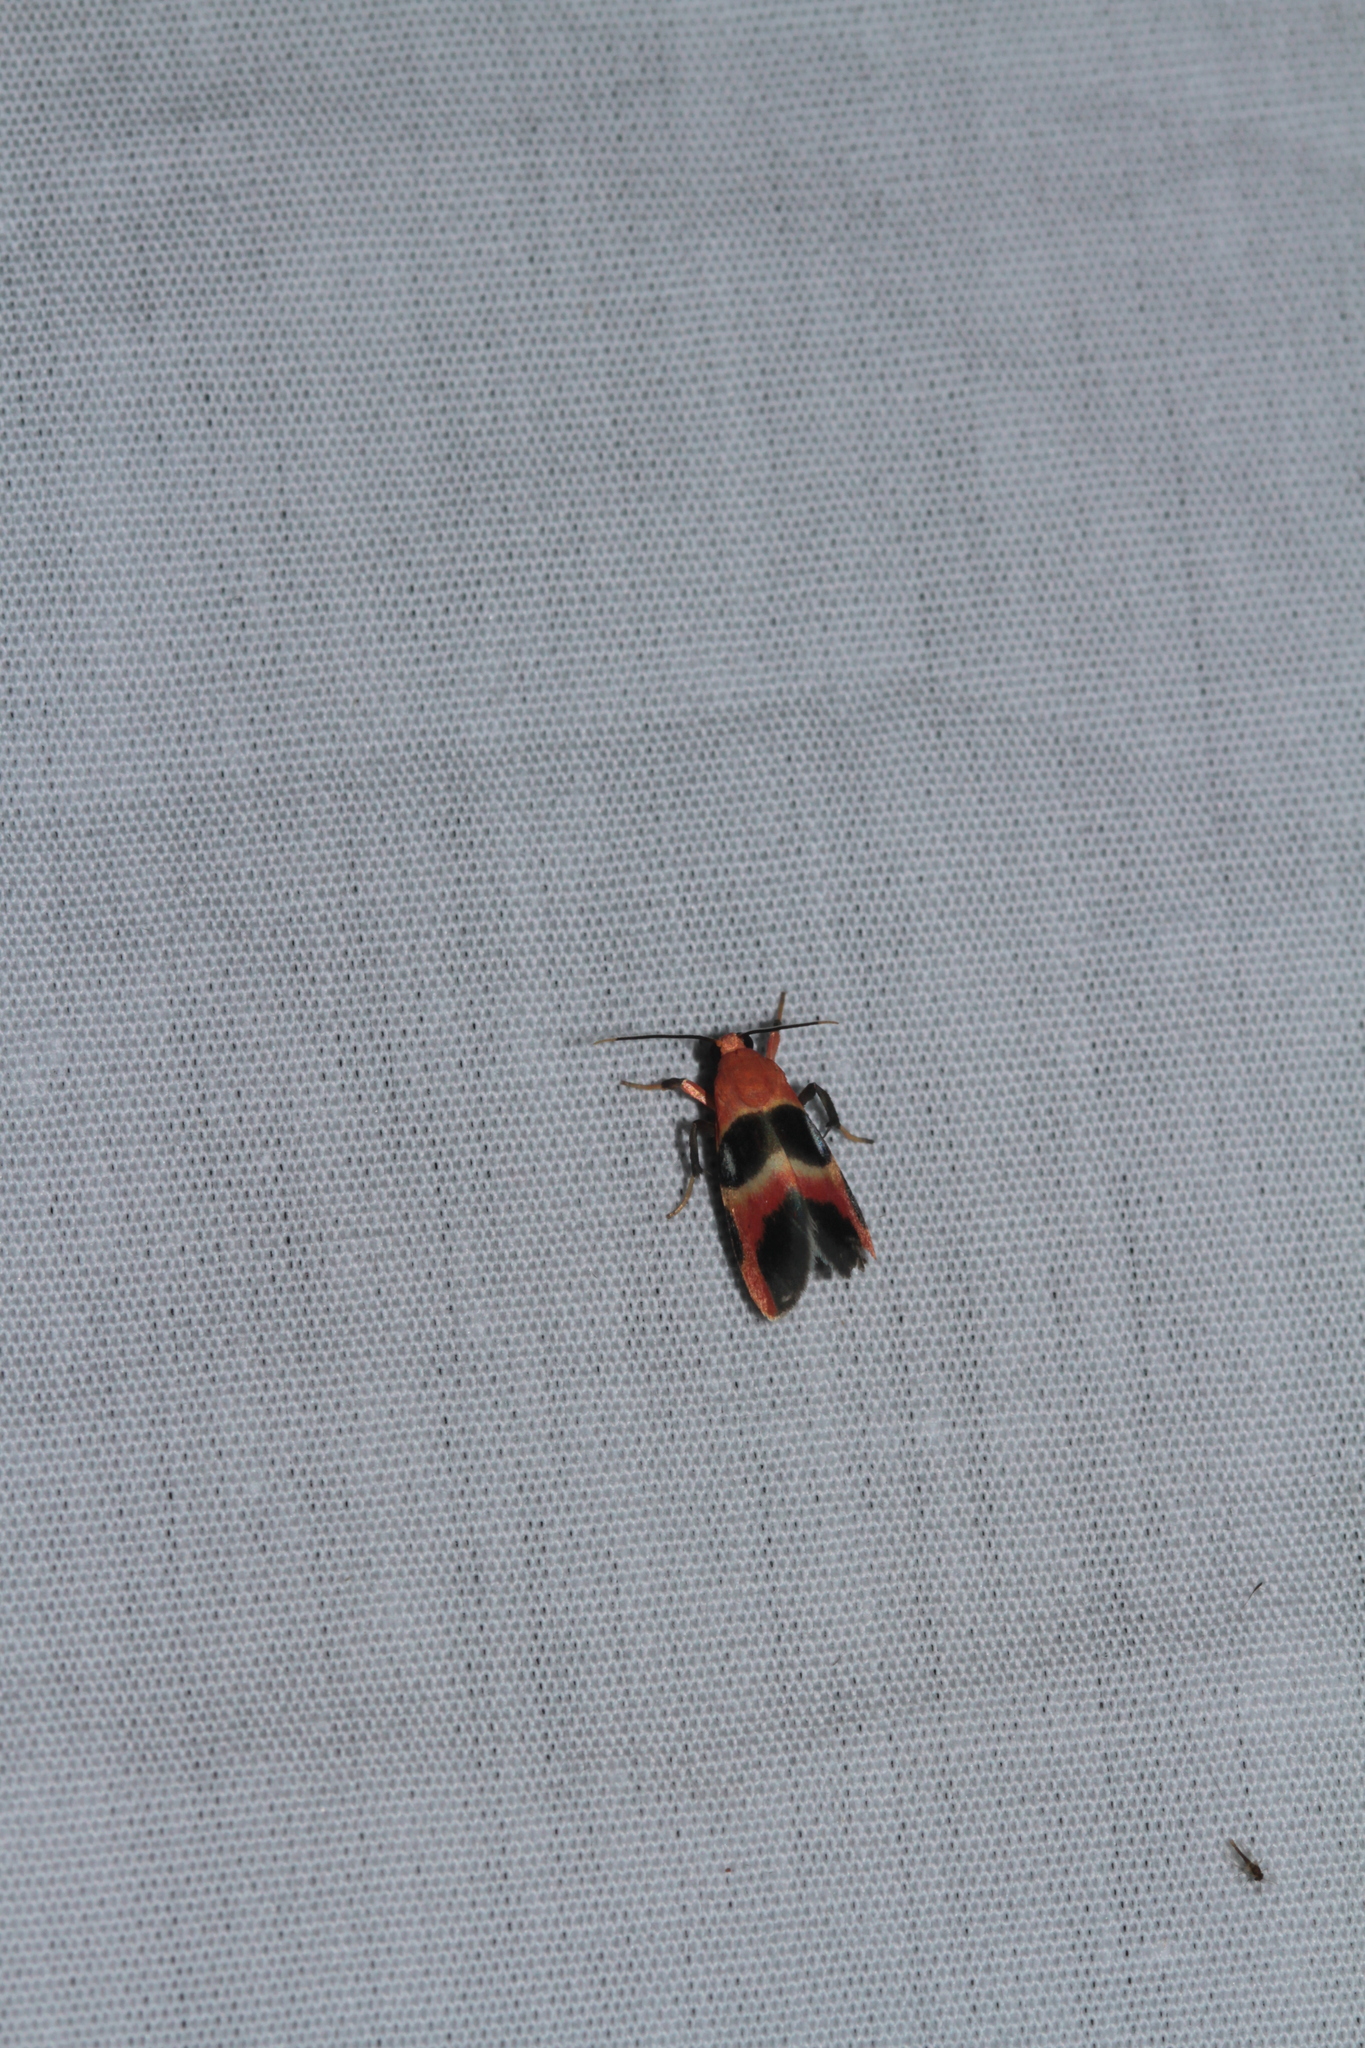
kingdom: Animalia
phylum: Arthropoda
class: Insecta
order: Lepidoptera
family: Erebidae
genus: Talara
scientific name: Talara megaspila
